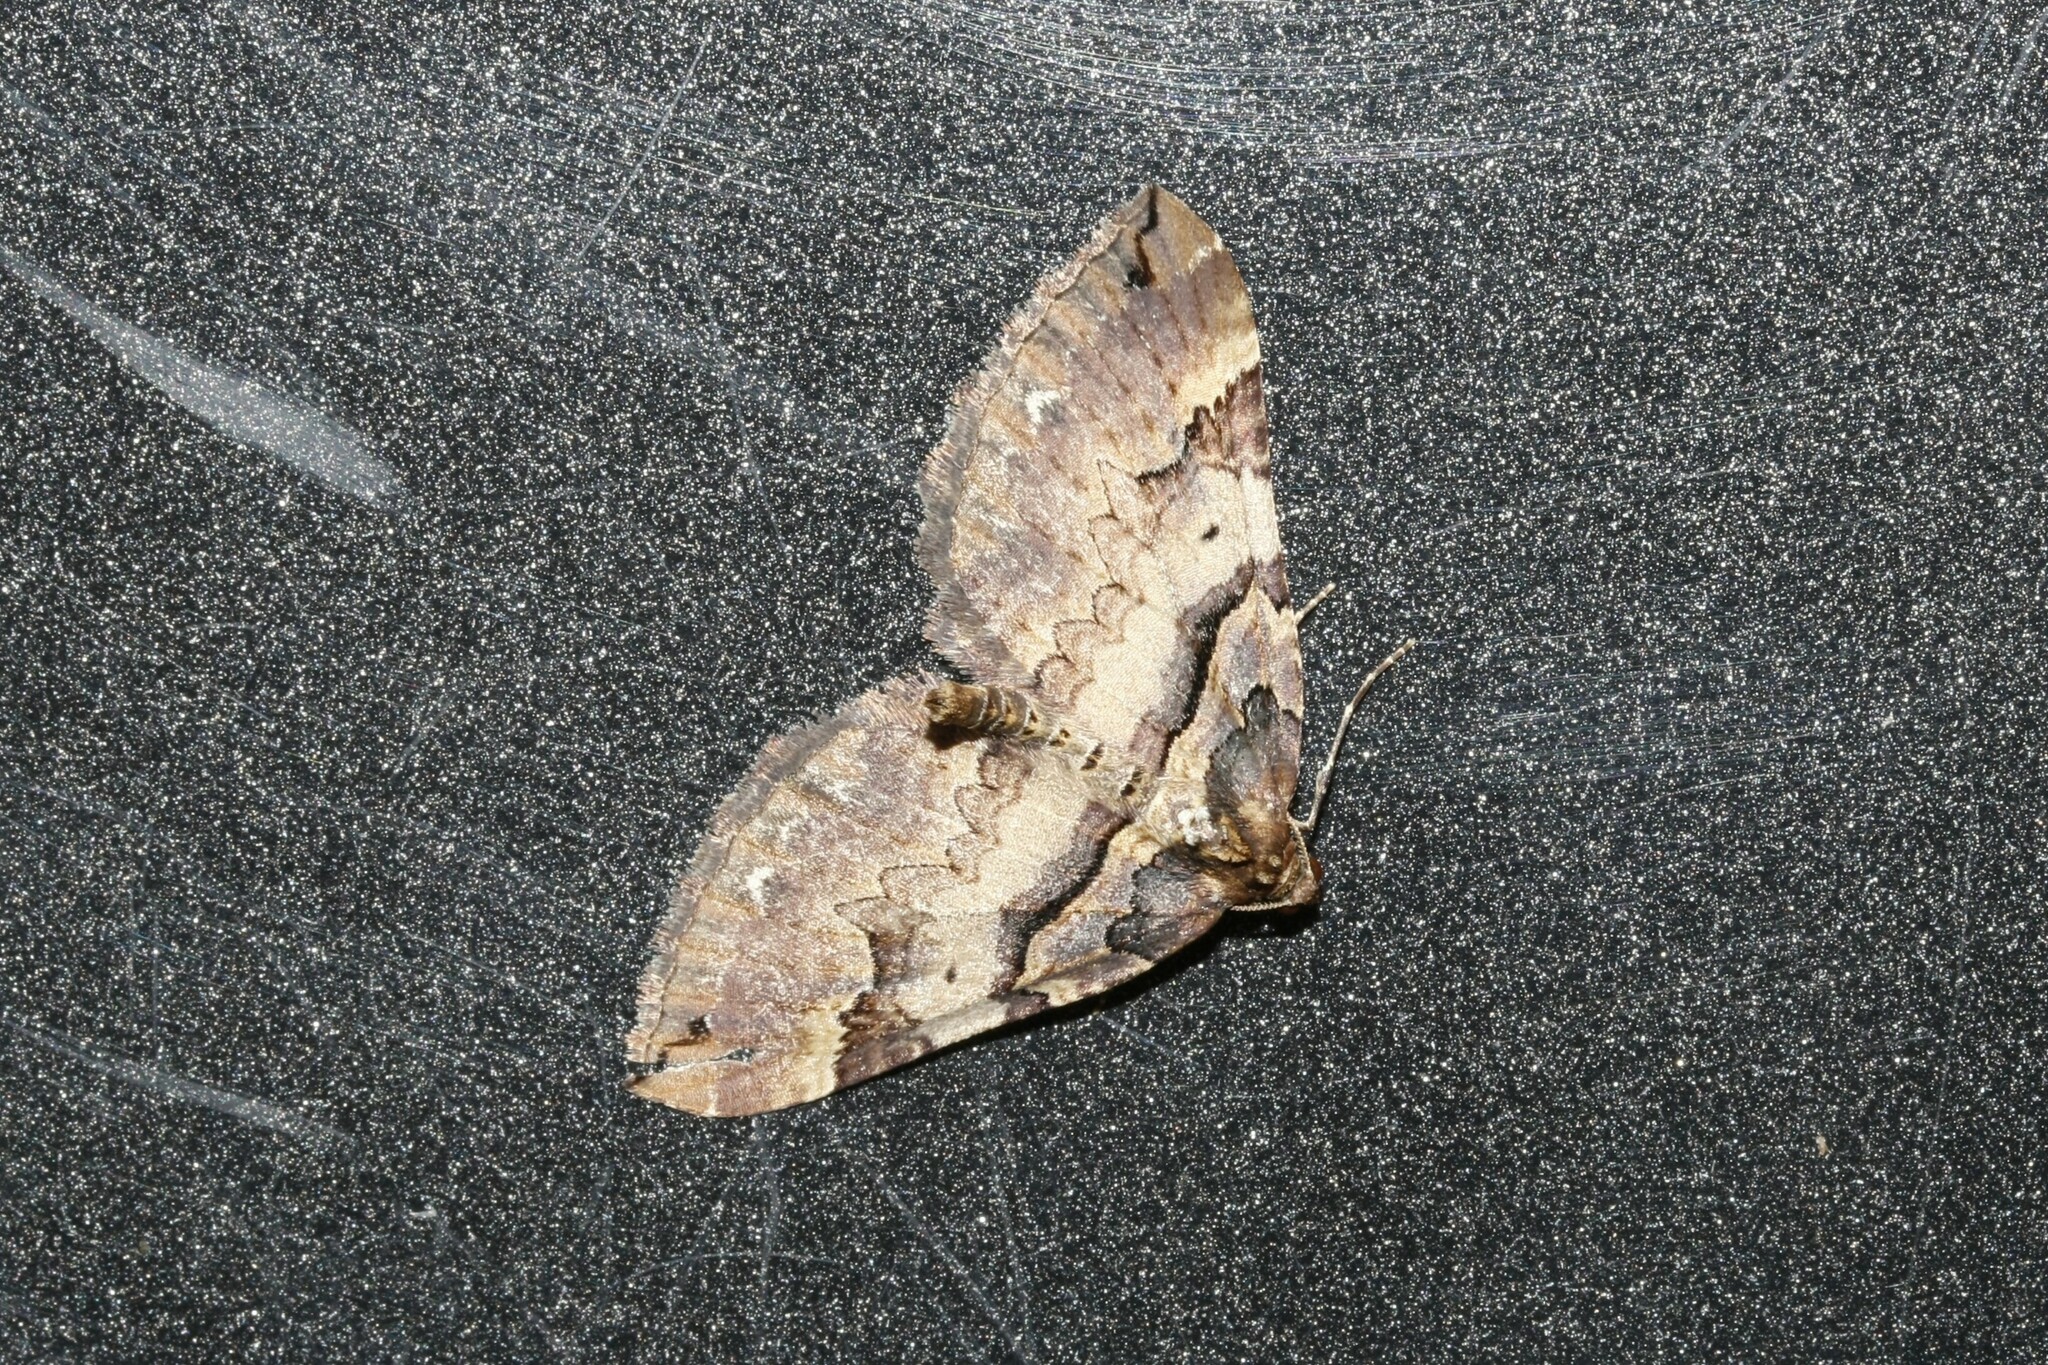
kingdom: Animalia
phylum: Arthropoda
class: Insecta
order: Lepidoptera
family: Geometridae
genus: Anticlea
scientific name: Anticlea badiata
